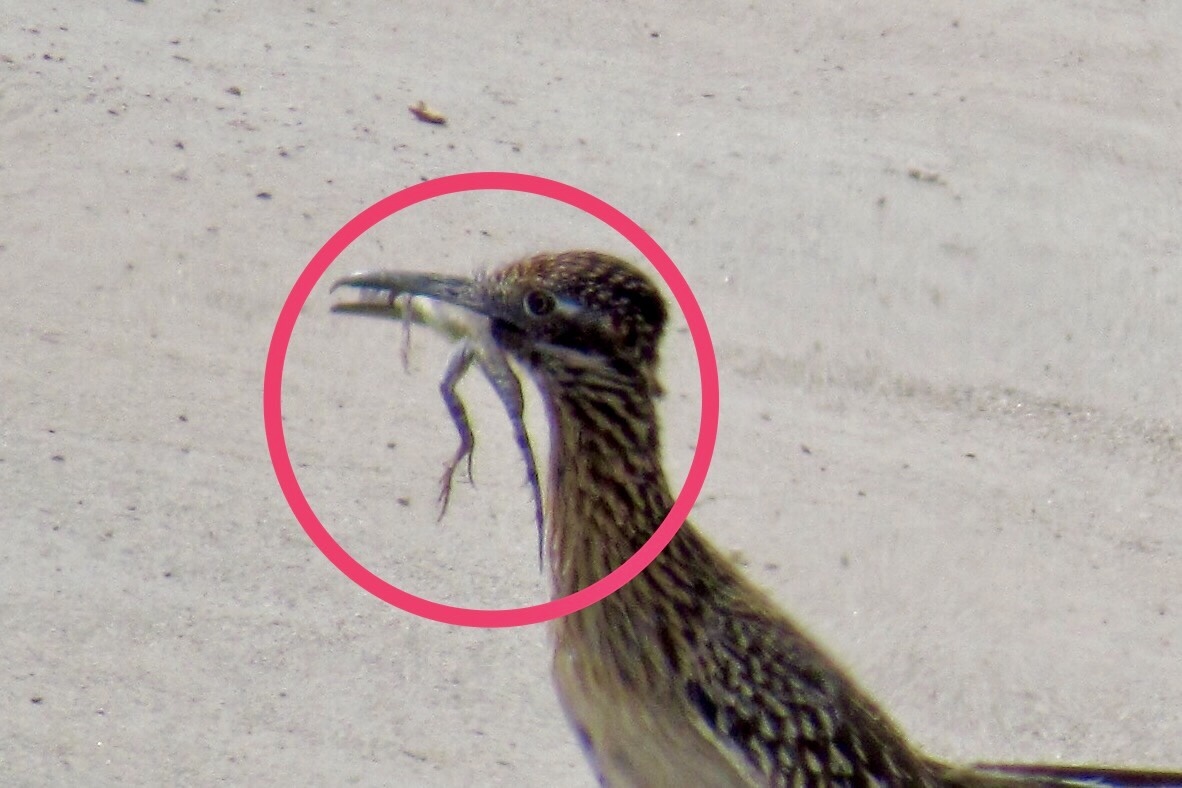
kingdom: Animalia
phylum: Chordata
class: Squamata
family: Phrynosomatidae
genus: Callisaurus
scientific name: Callisaurus draconoides
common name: Zebra-tailed lizard
